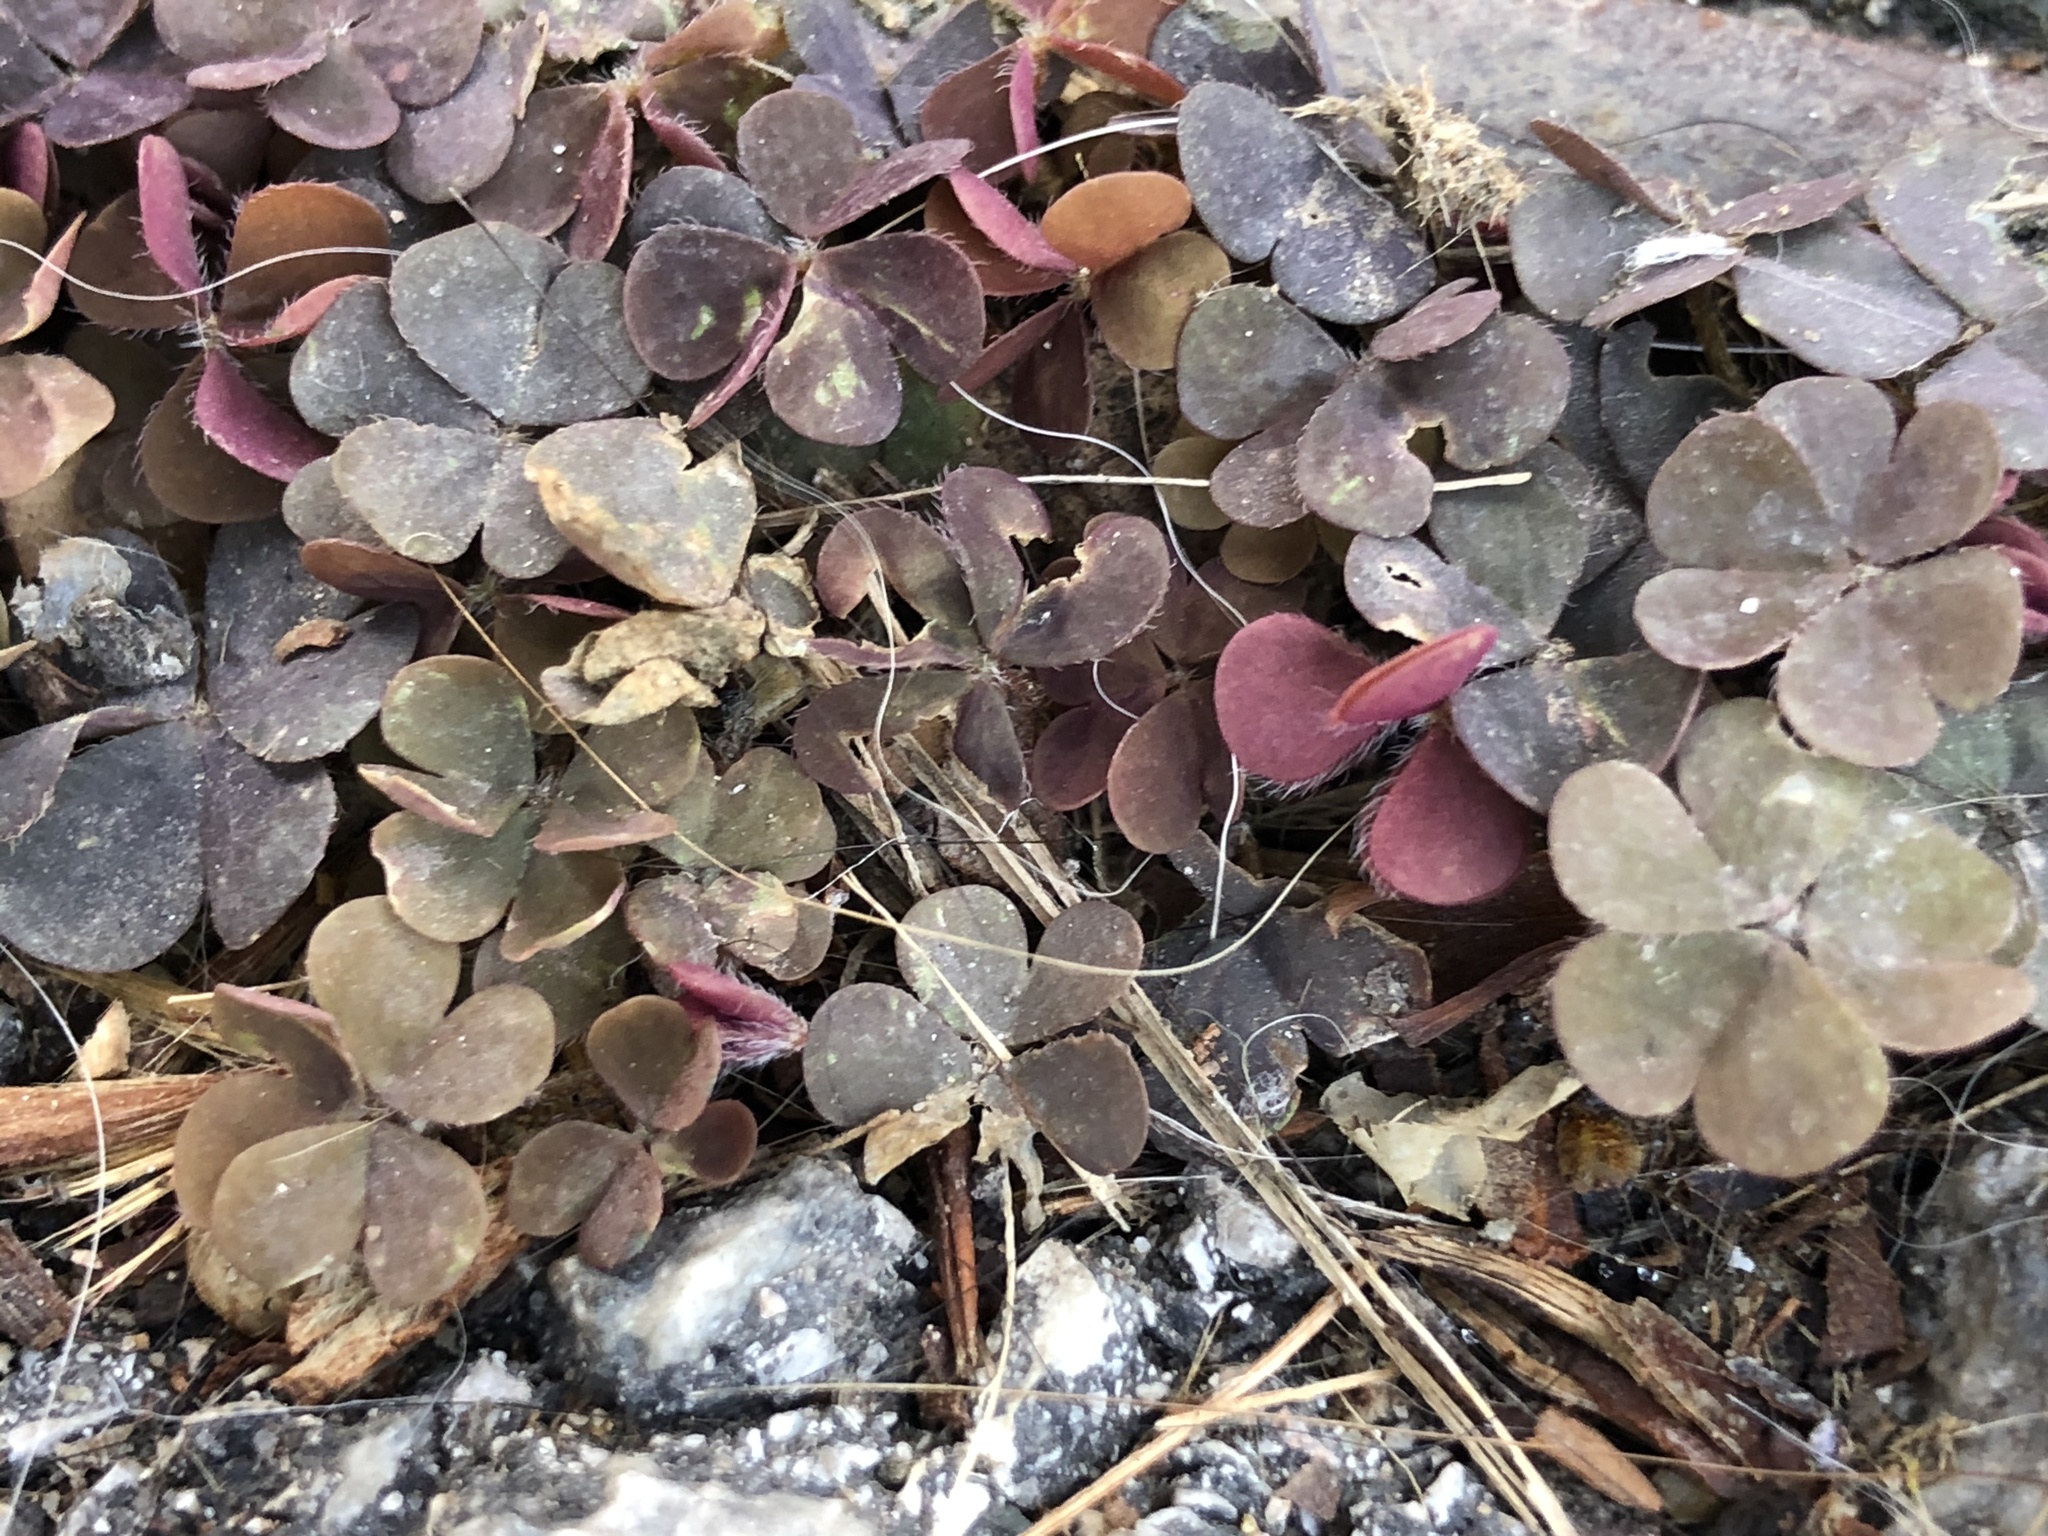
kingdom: Plantae
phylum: Tracheophyta
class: Magnoliopsida
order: Oxalidales
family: Oxalidaceae
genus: Oxalis
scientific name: Oxalis corniculata
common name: Procumbent yellow-sorrel
